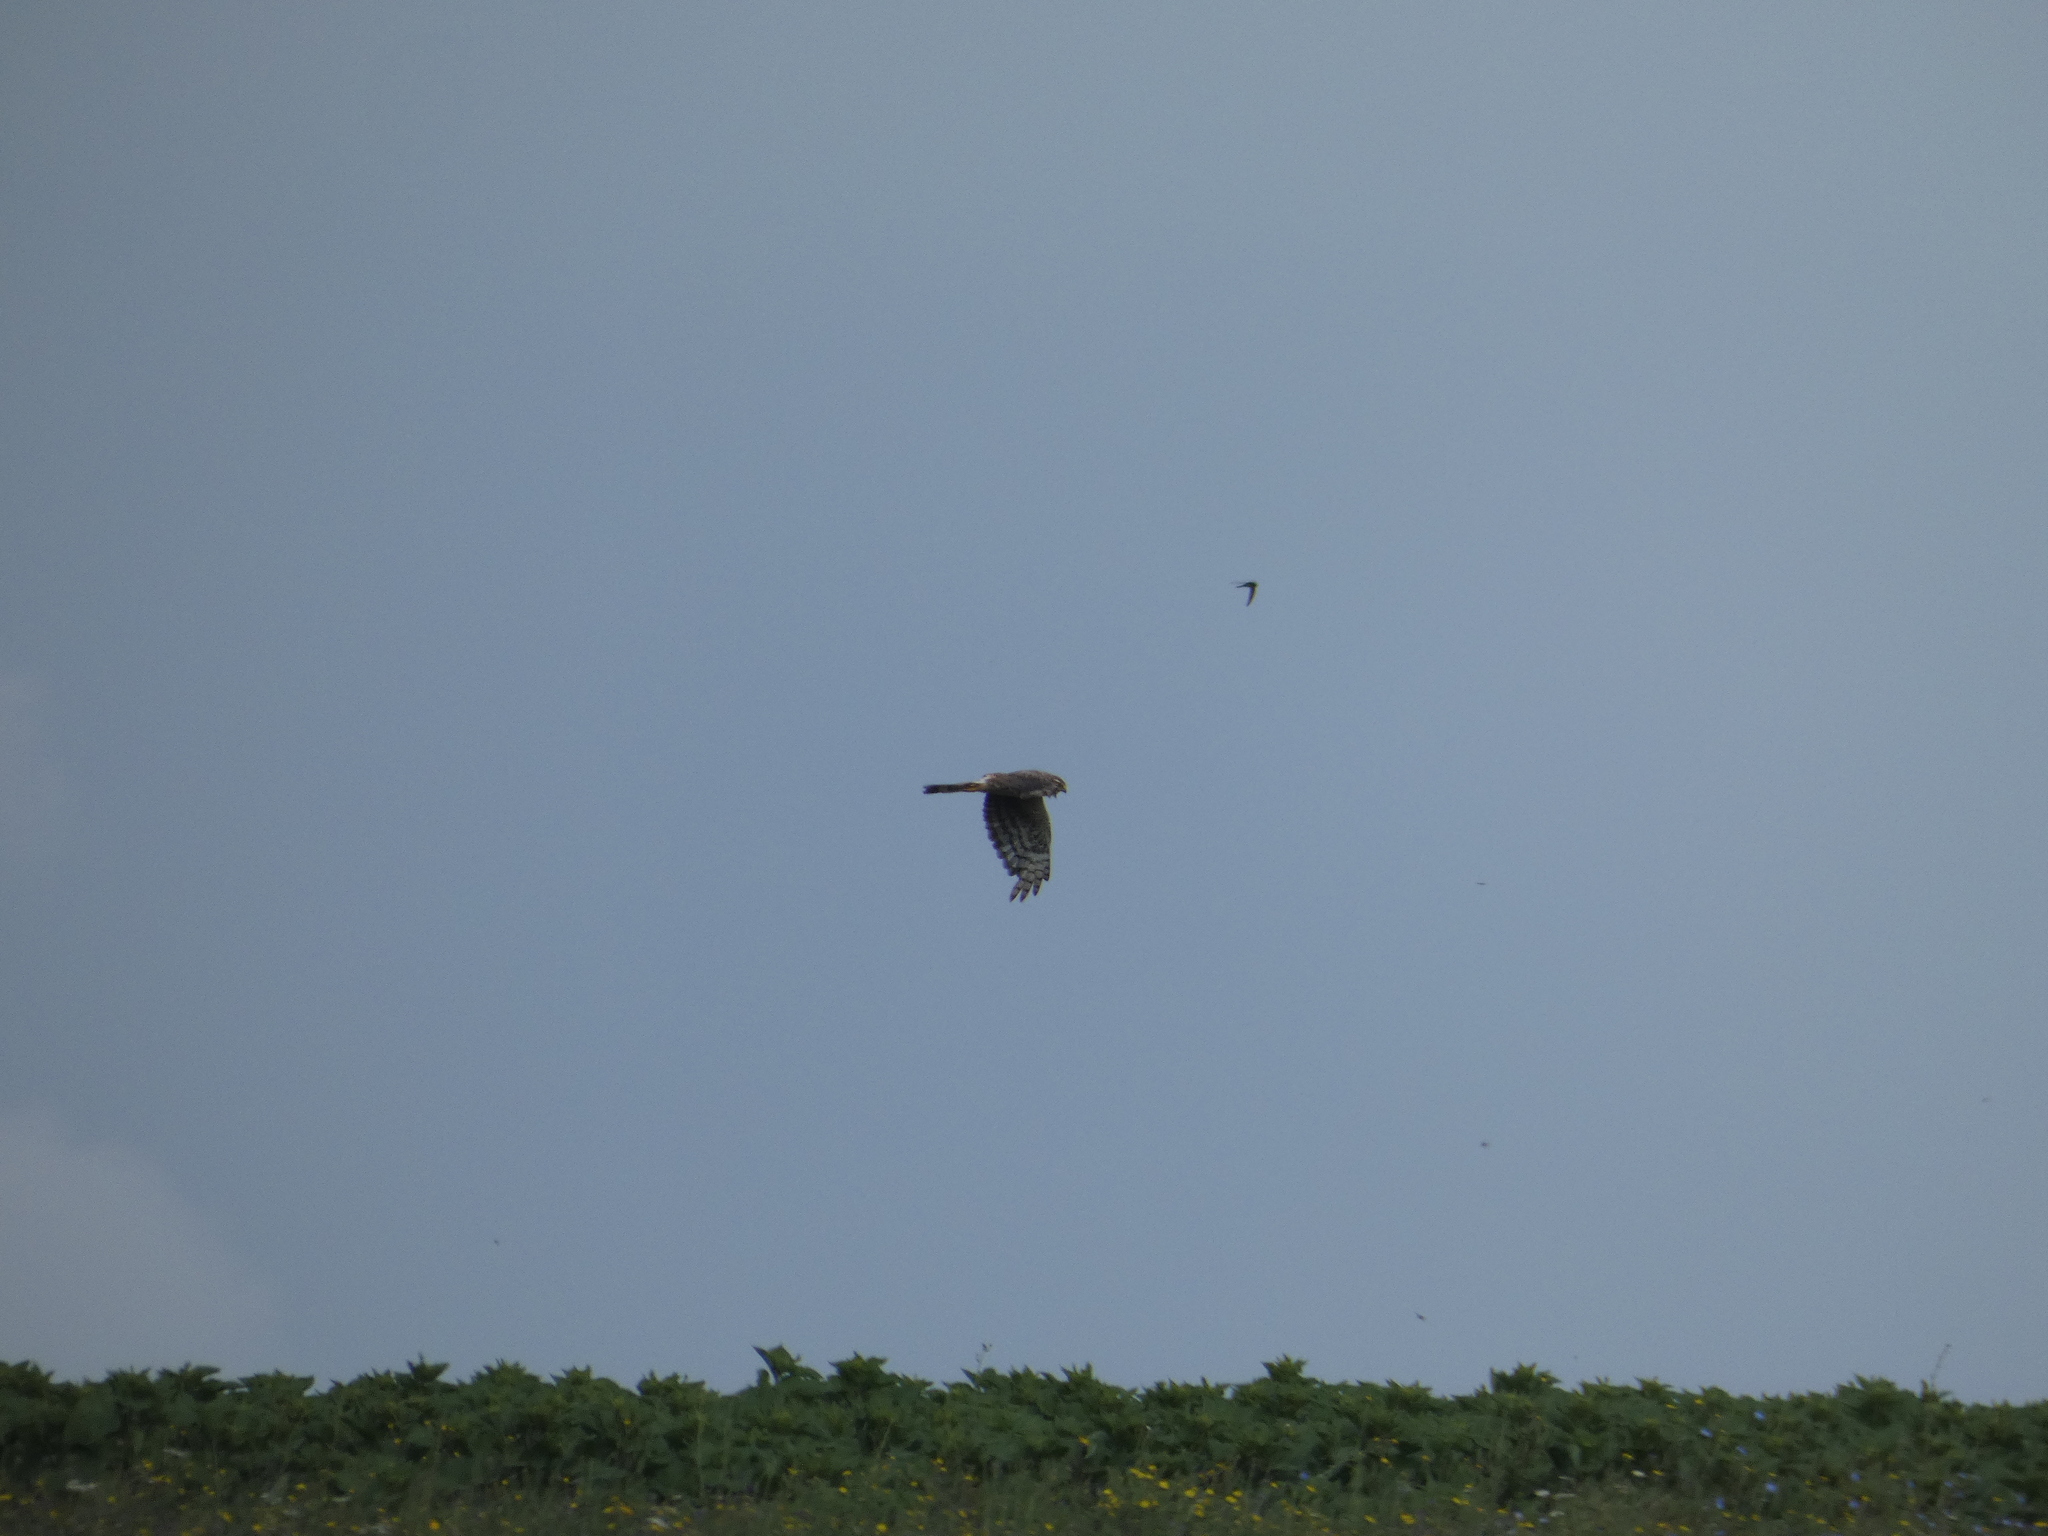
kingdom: Animalia
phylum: Chordata
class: Aves
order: Accipitriformes
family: Accipitridae
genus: Circus
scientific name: Circus pygargus
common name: Montagu's harrier
